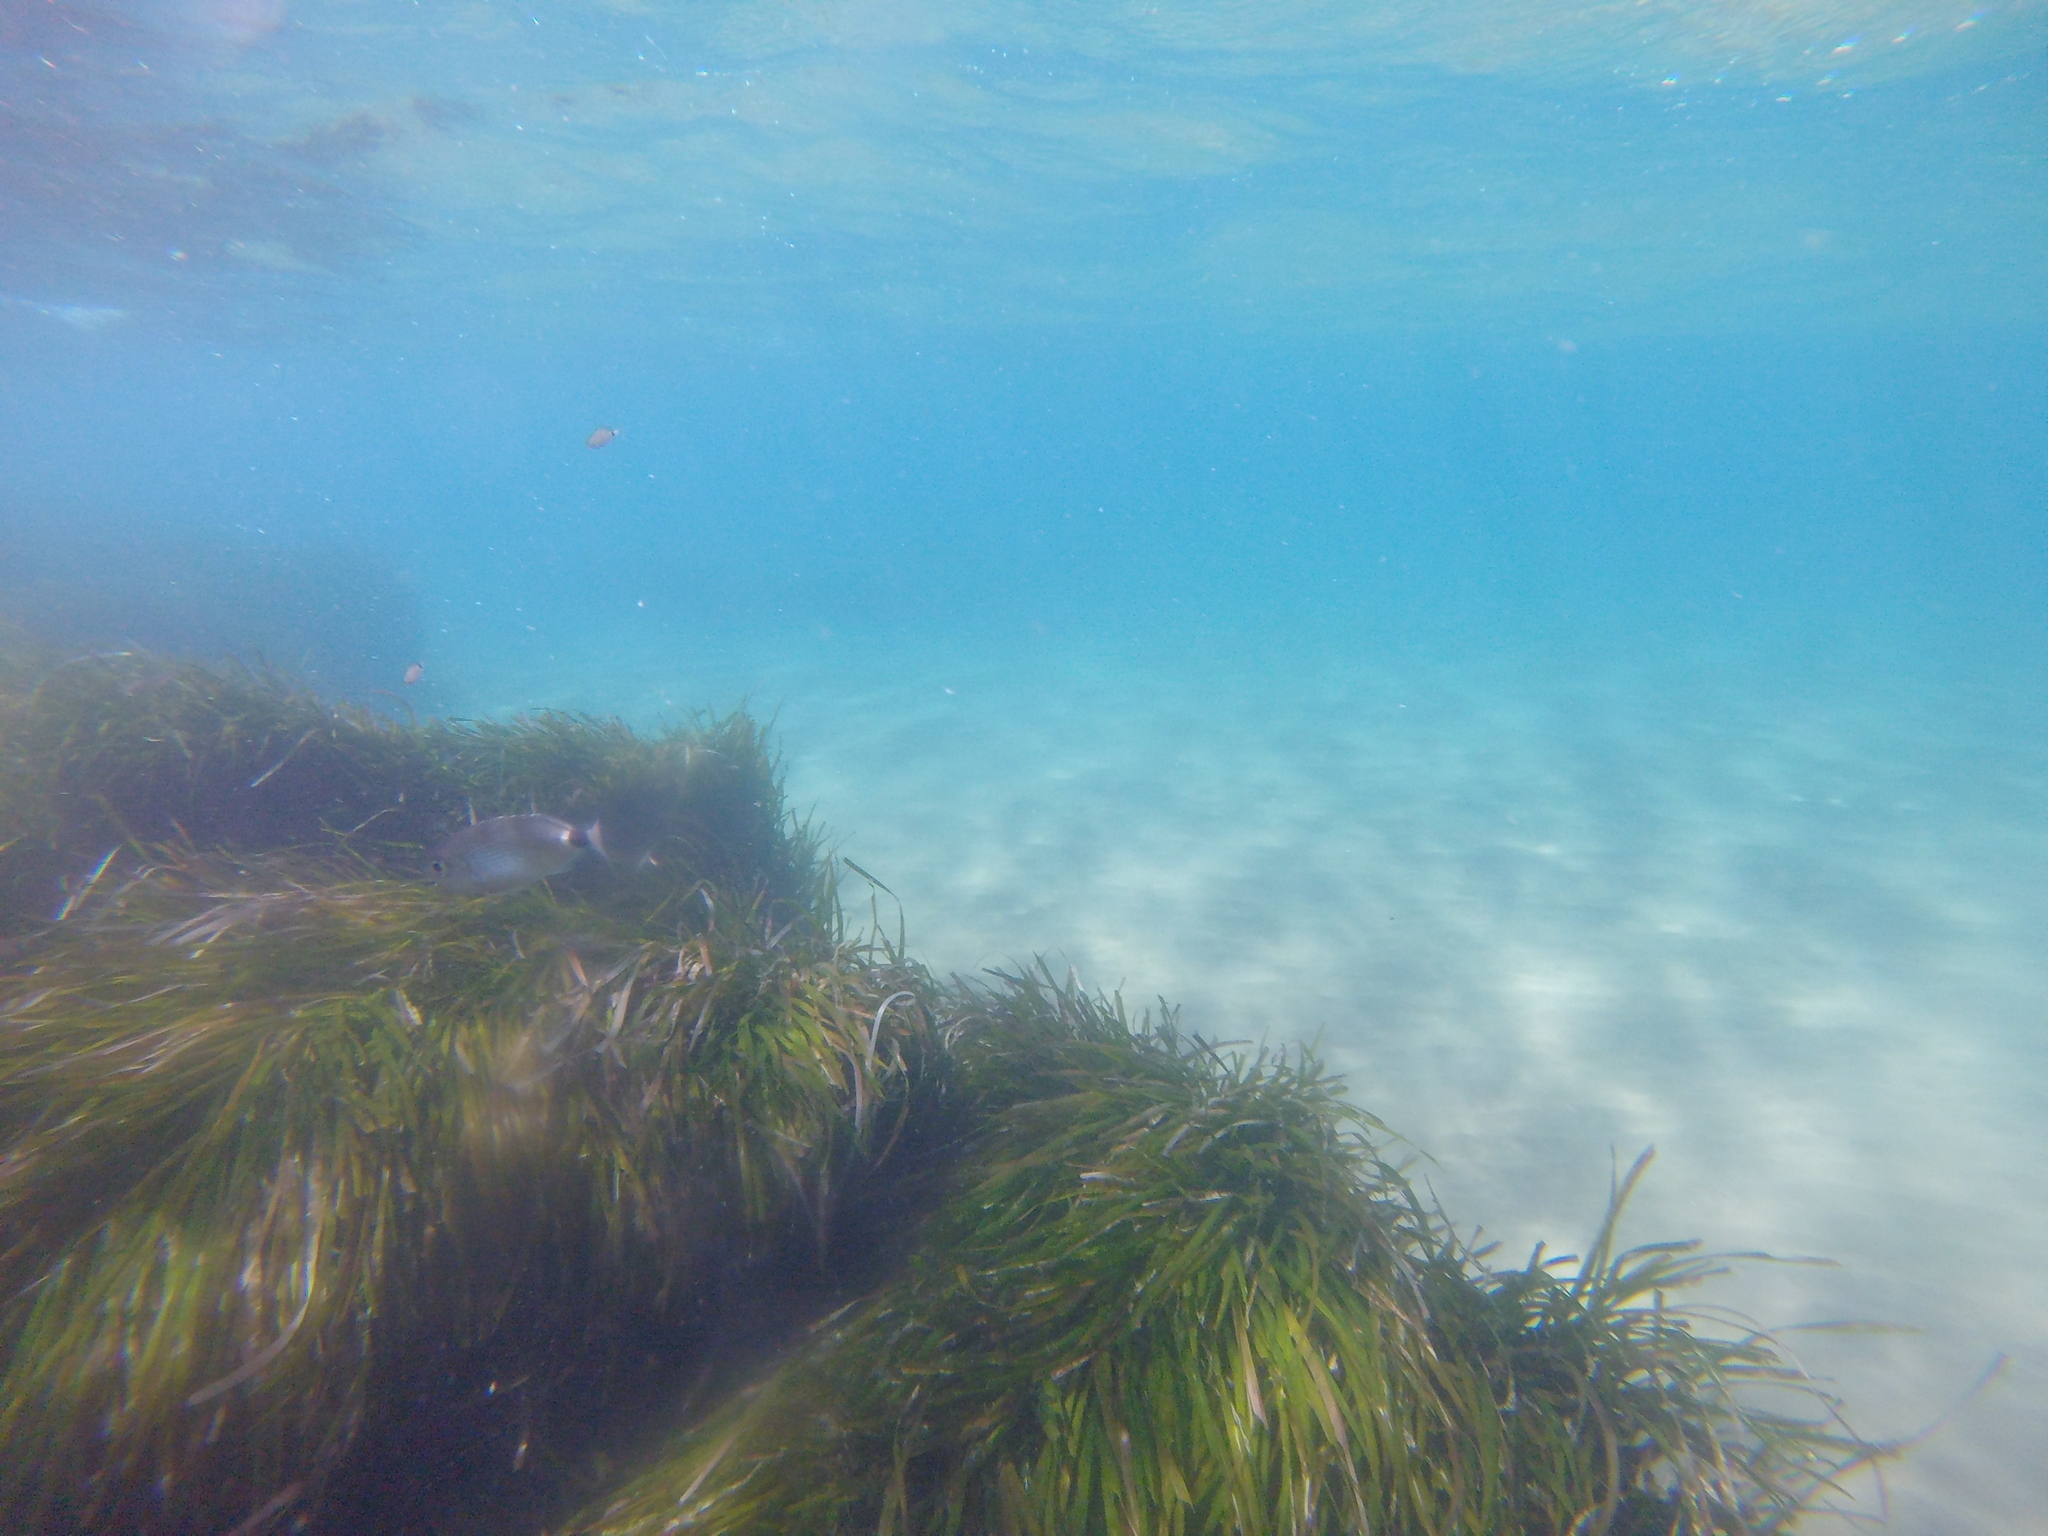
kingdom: Animalia
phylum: Chordata
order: Perciformes
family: Sparidae
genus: Oblada
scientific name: Oblada melanura
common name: Saddled seabream
